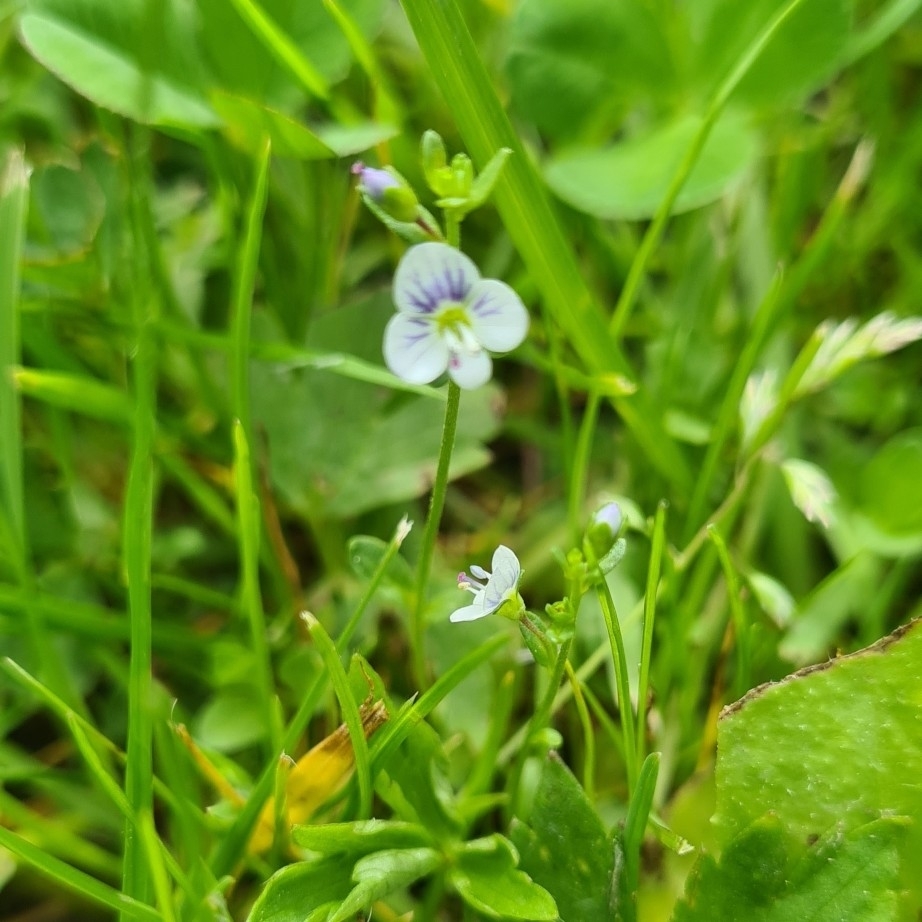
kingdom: Plantae
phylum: Tracheophyta
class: Magnoliopsida
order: Lamiales
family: Plantaginaceae
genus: Veronica
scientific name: Veronica serpyllifolia
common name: Thyme-leaved speedwell
